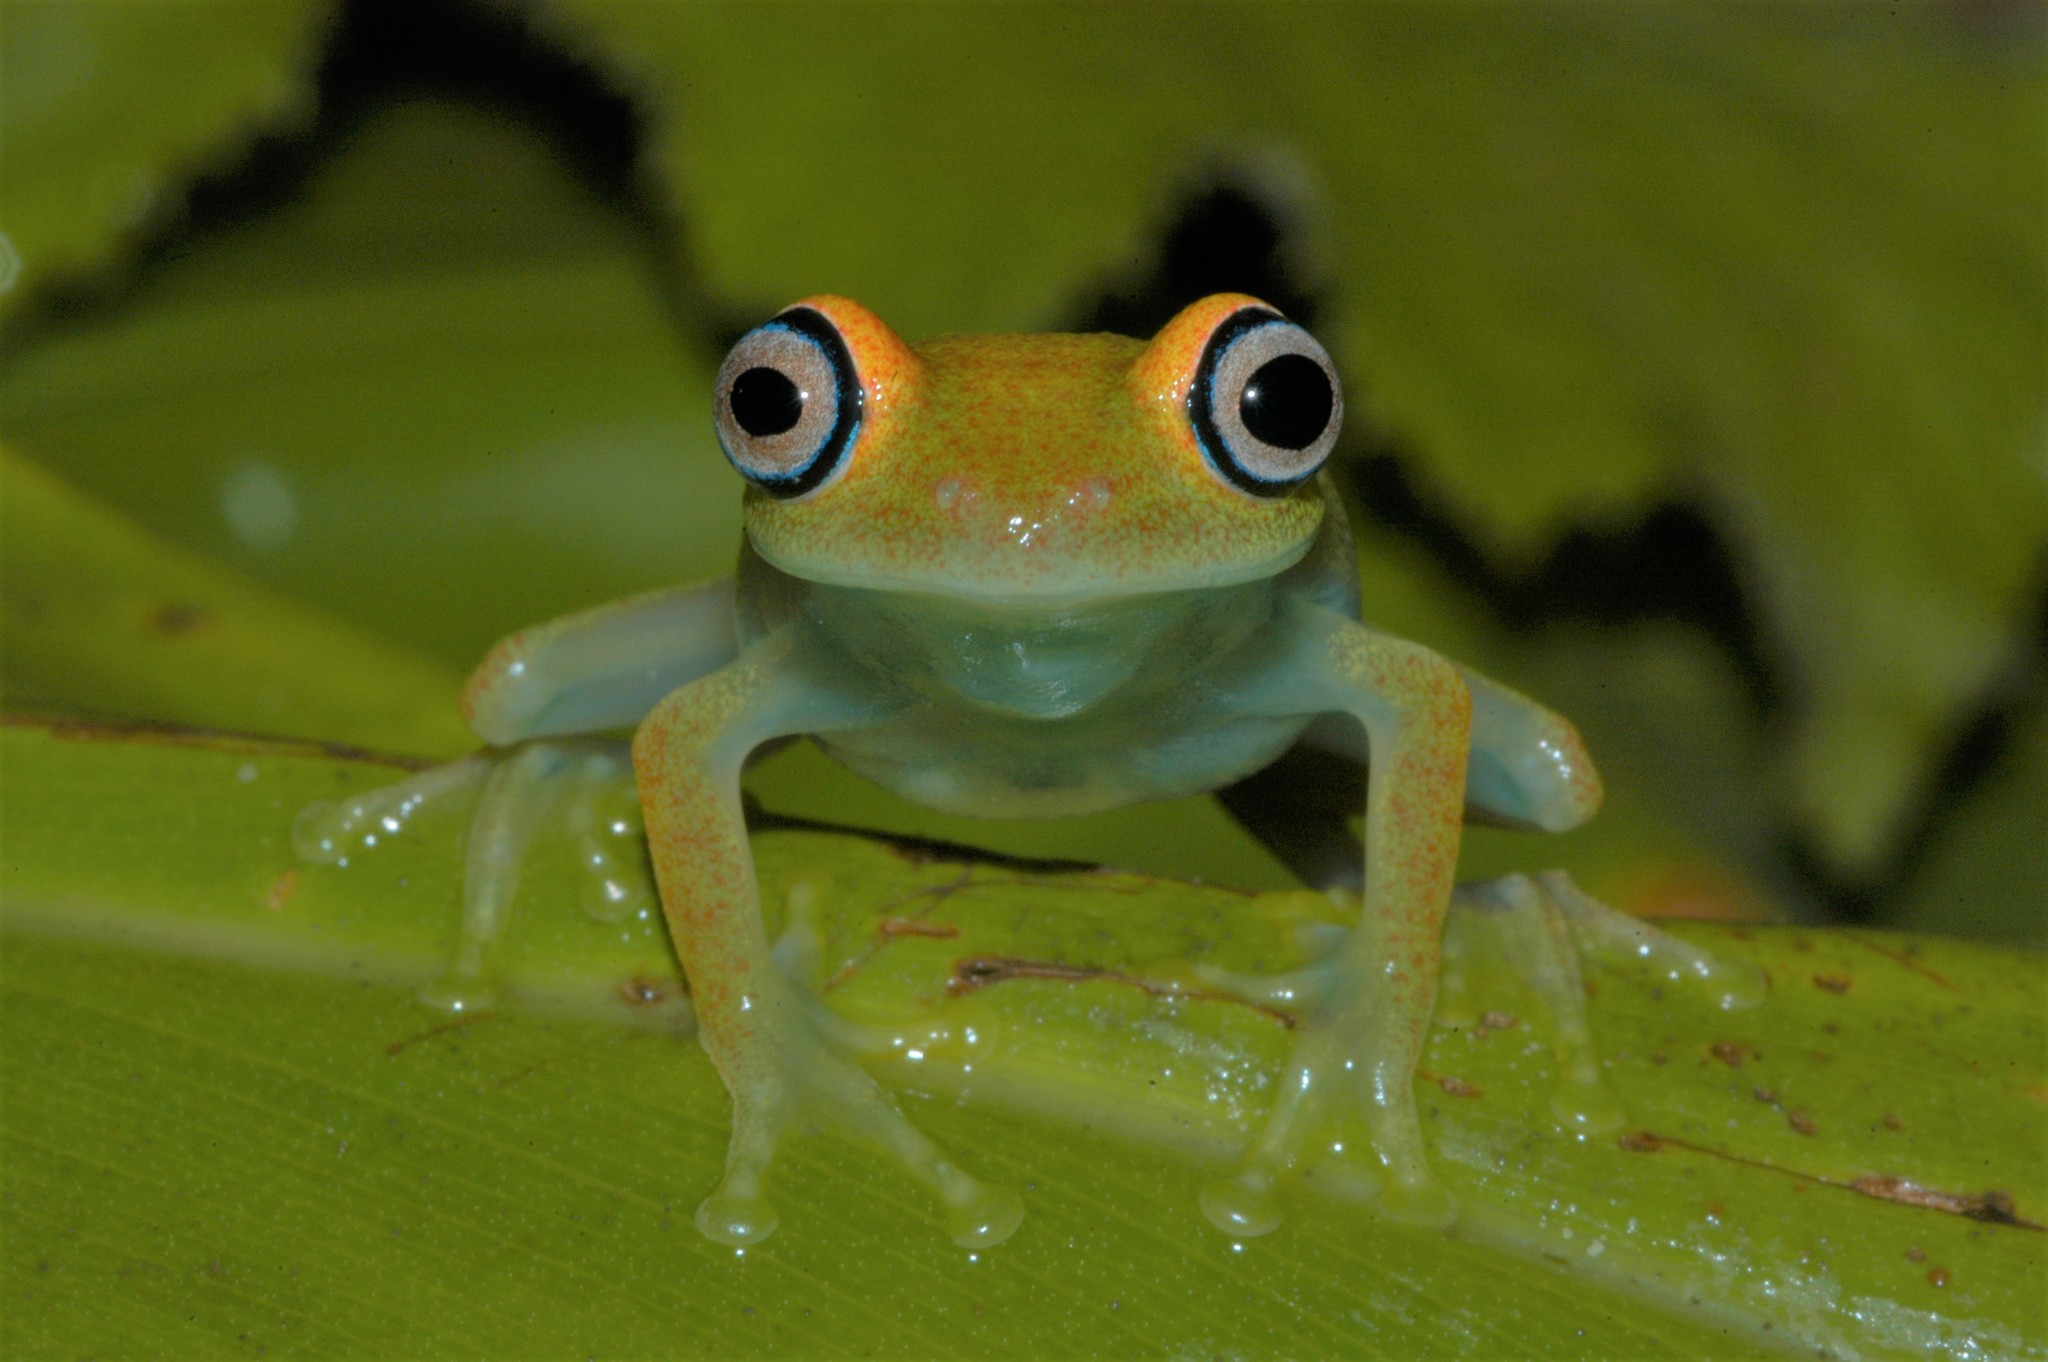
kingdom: Animalia
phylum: Chordata
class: Amphibia
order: Anura
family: Mantellidae
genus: Boophis
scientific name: Boophis viridis
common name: Green bright-eyed frog
